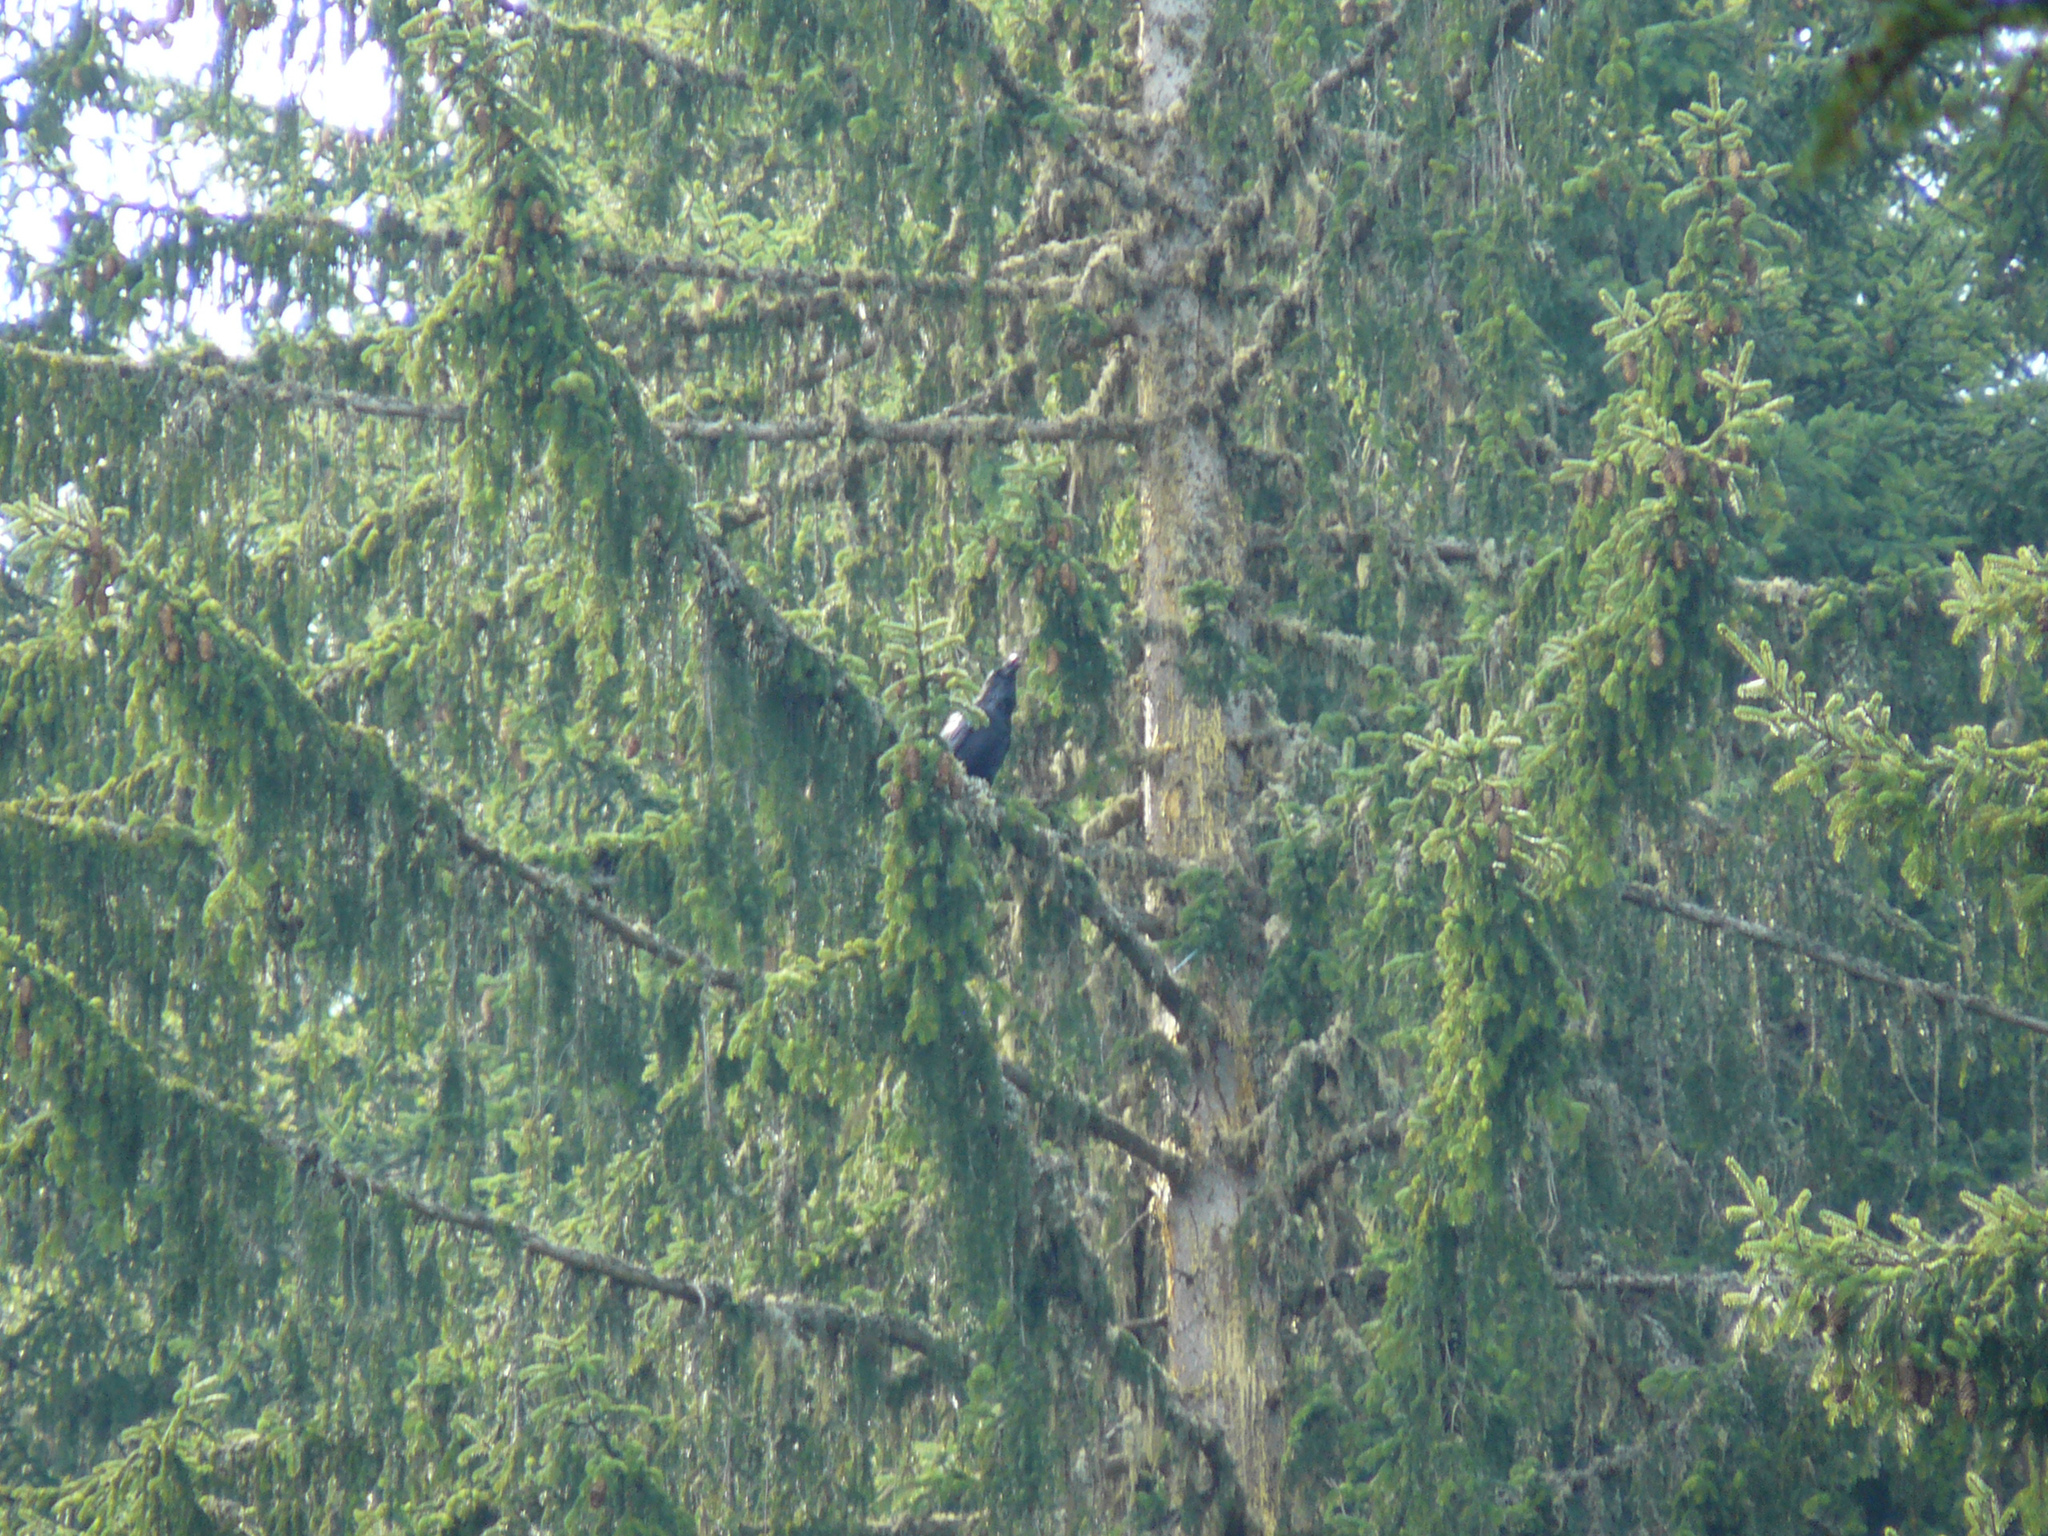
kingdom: Animalia
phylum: Chordata
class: Aves
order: Passeriformes
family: Corvidae
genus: Corvus
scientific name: Corvus corax
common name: Common raven
